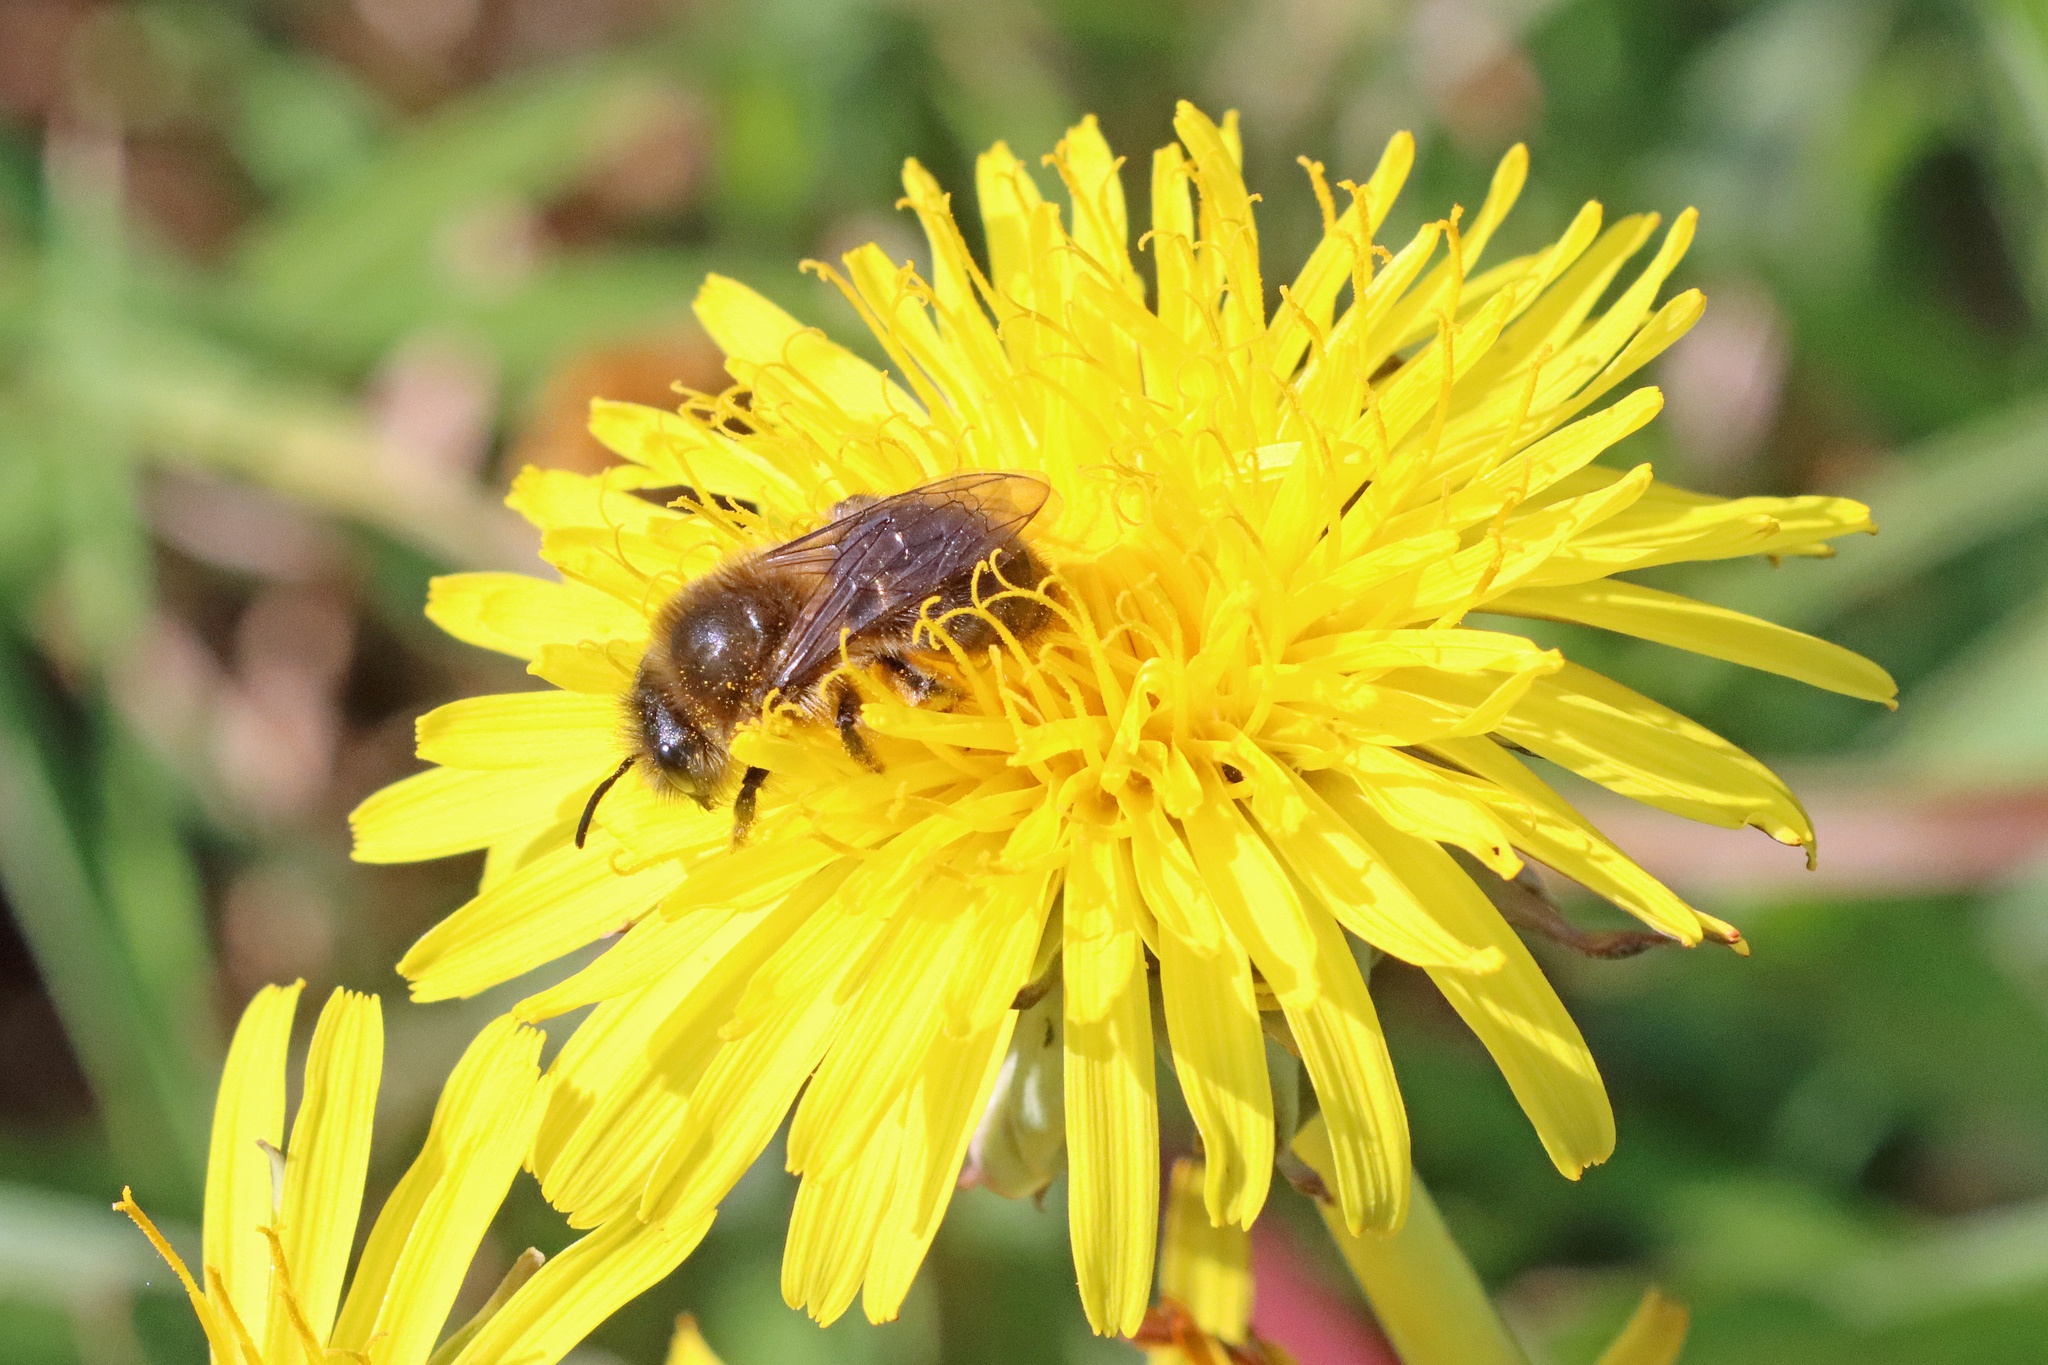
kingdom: Animalia
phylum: Arthropoda
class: Insecta
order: Hymenoptera
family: Colletidae
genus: Colletes
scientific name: Colletes cunicularius
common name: Early colletes
